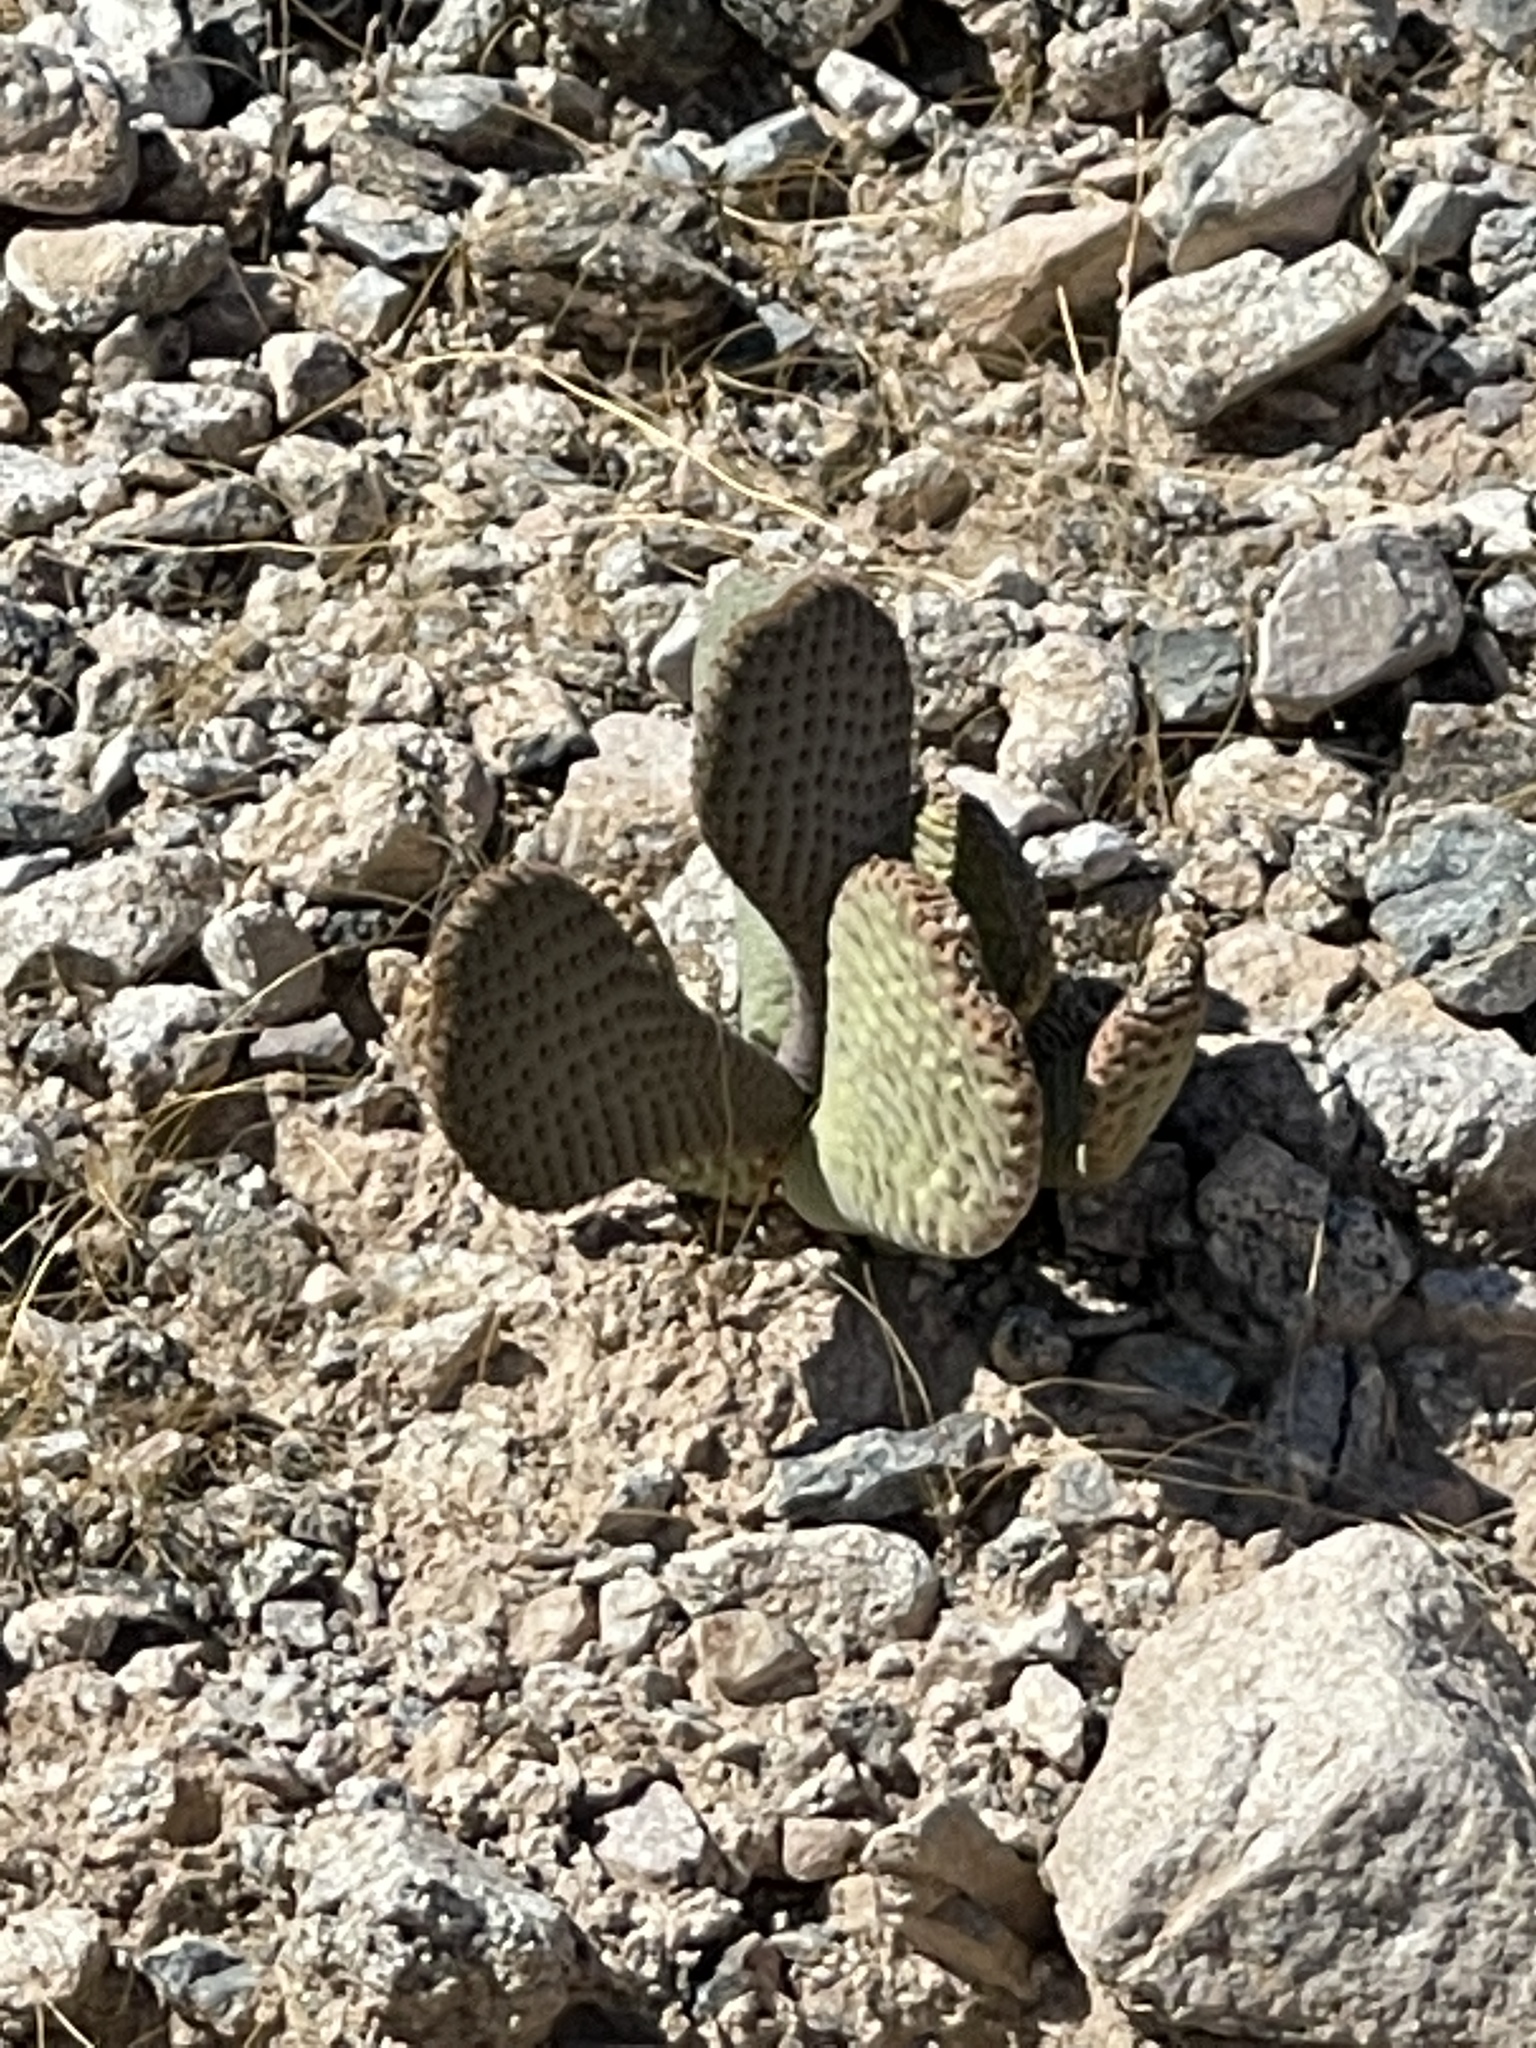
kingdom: Plantae
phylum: Tracheophyta
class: Magnoliopsida
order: Caryophyllales
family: Cactaceae
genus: Opuntia
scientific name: Opuntia basilaris
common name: Beavertail prickly-pear
